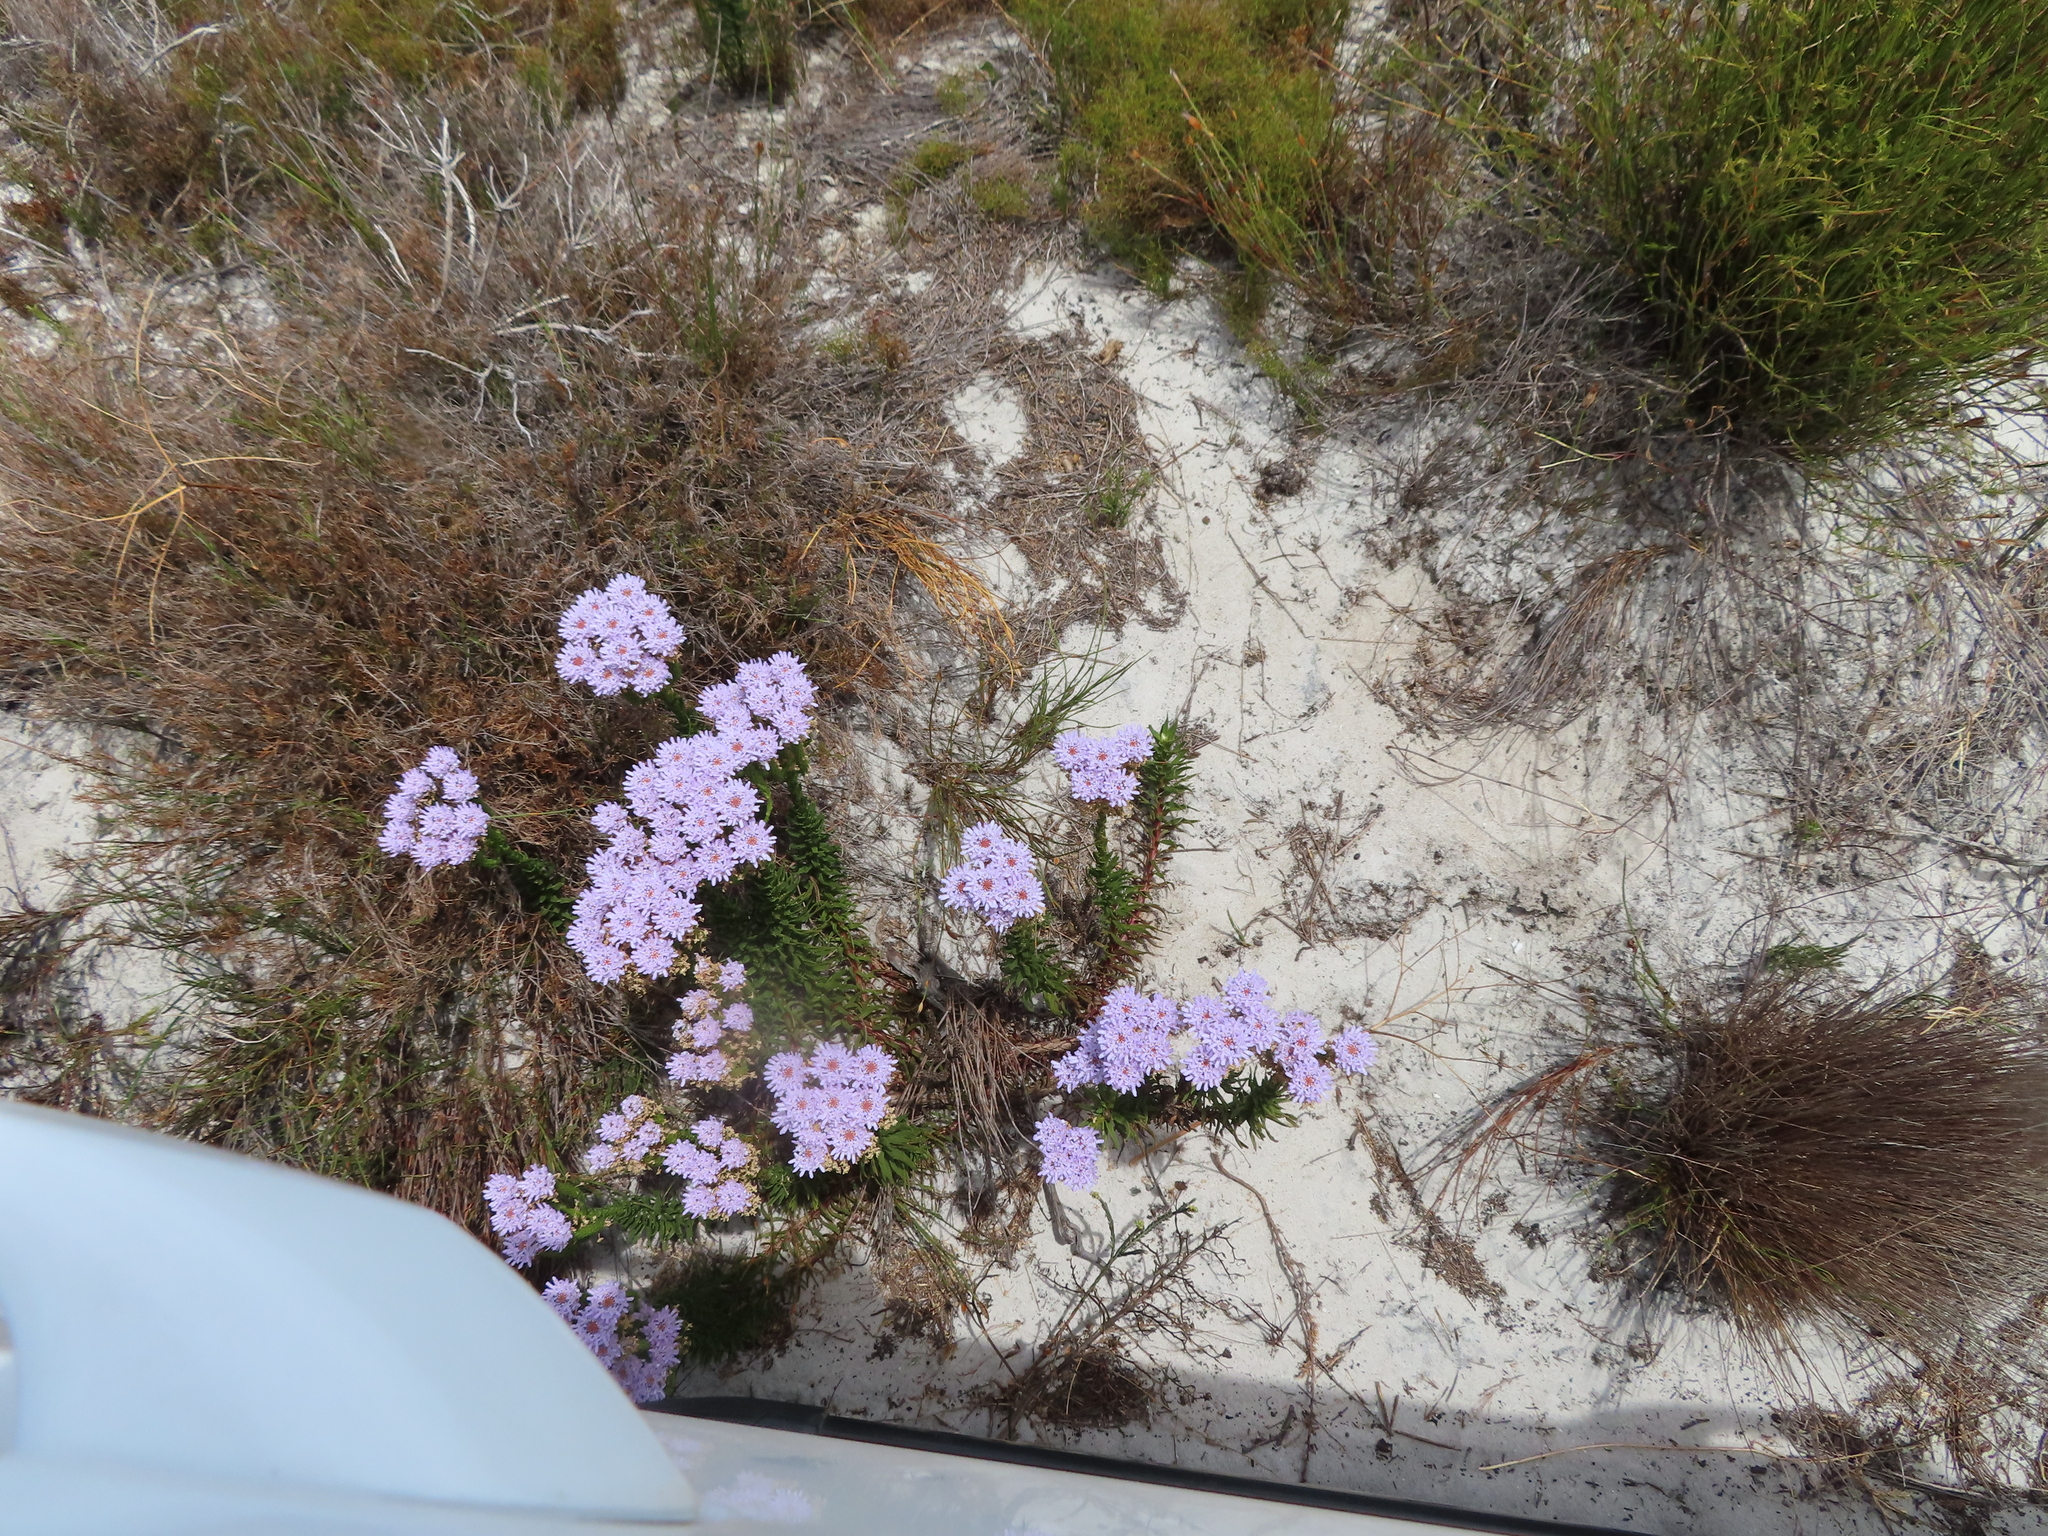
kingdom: Plantae
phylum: Tracheophyta
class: Magnoliopsida
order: Lamiales
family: Scrophulariaceae
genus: Pseudoselago
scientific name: Pseudoselago spuria
